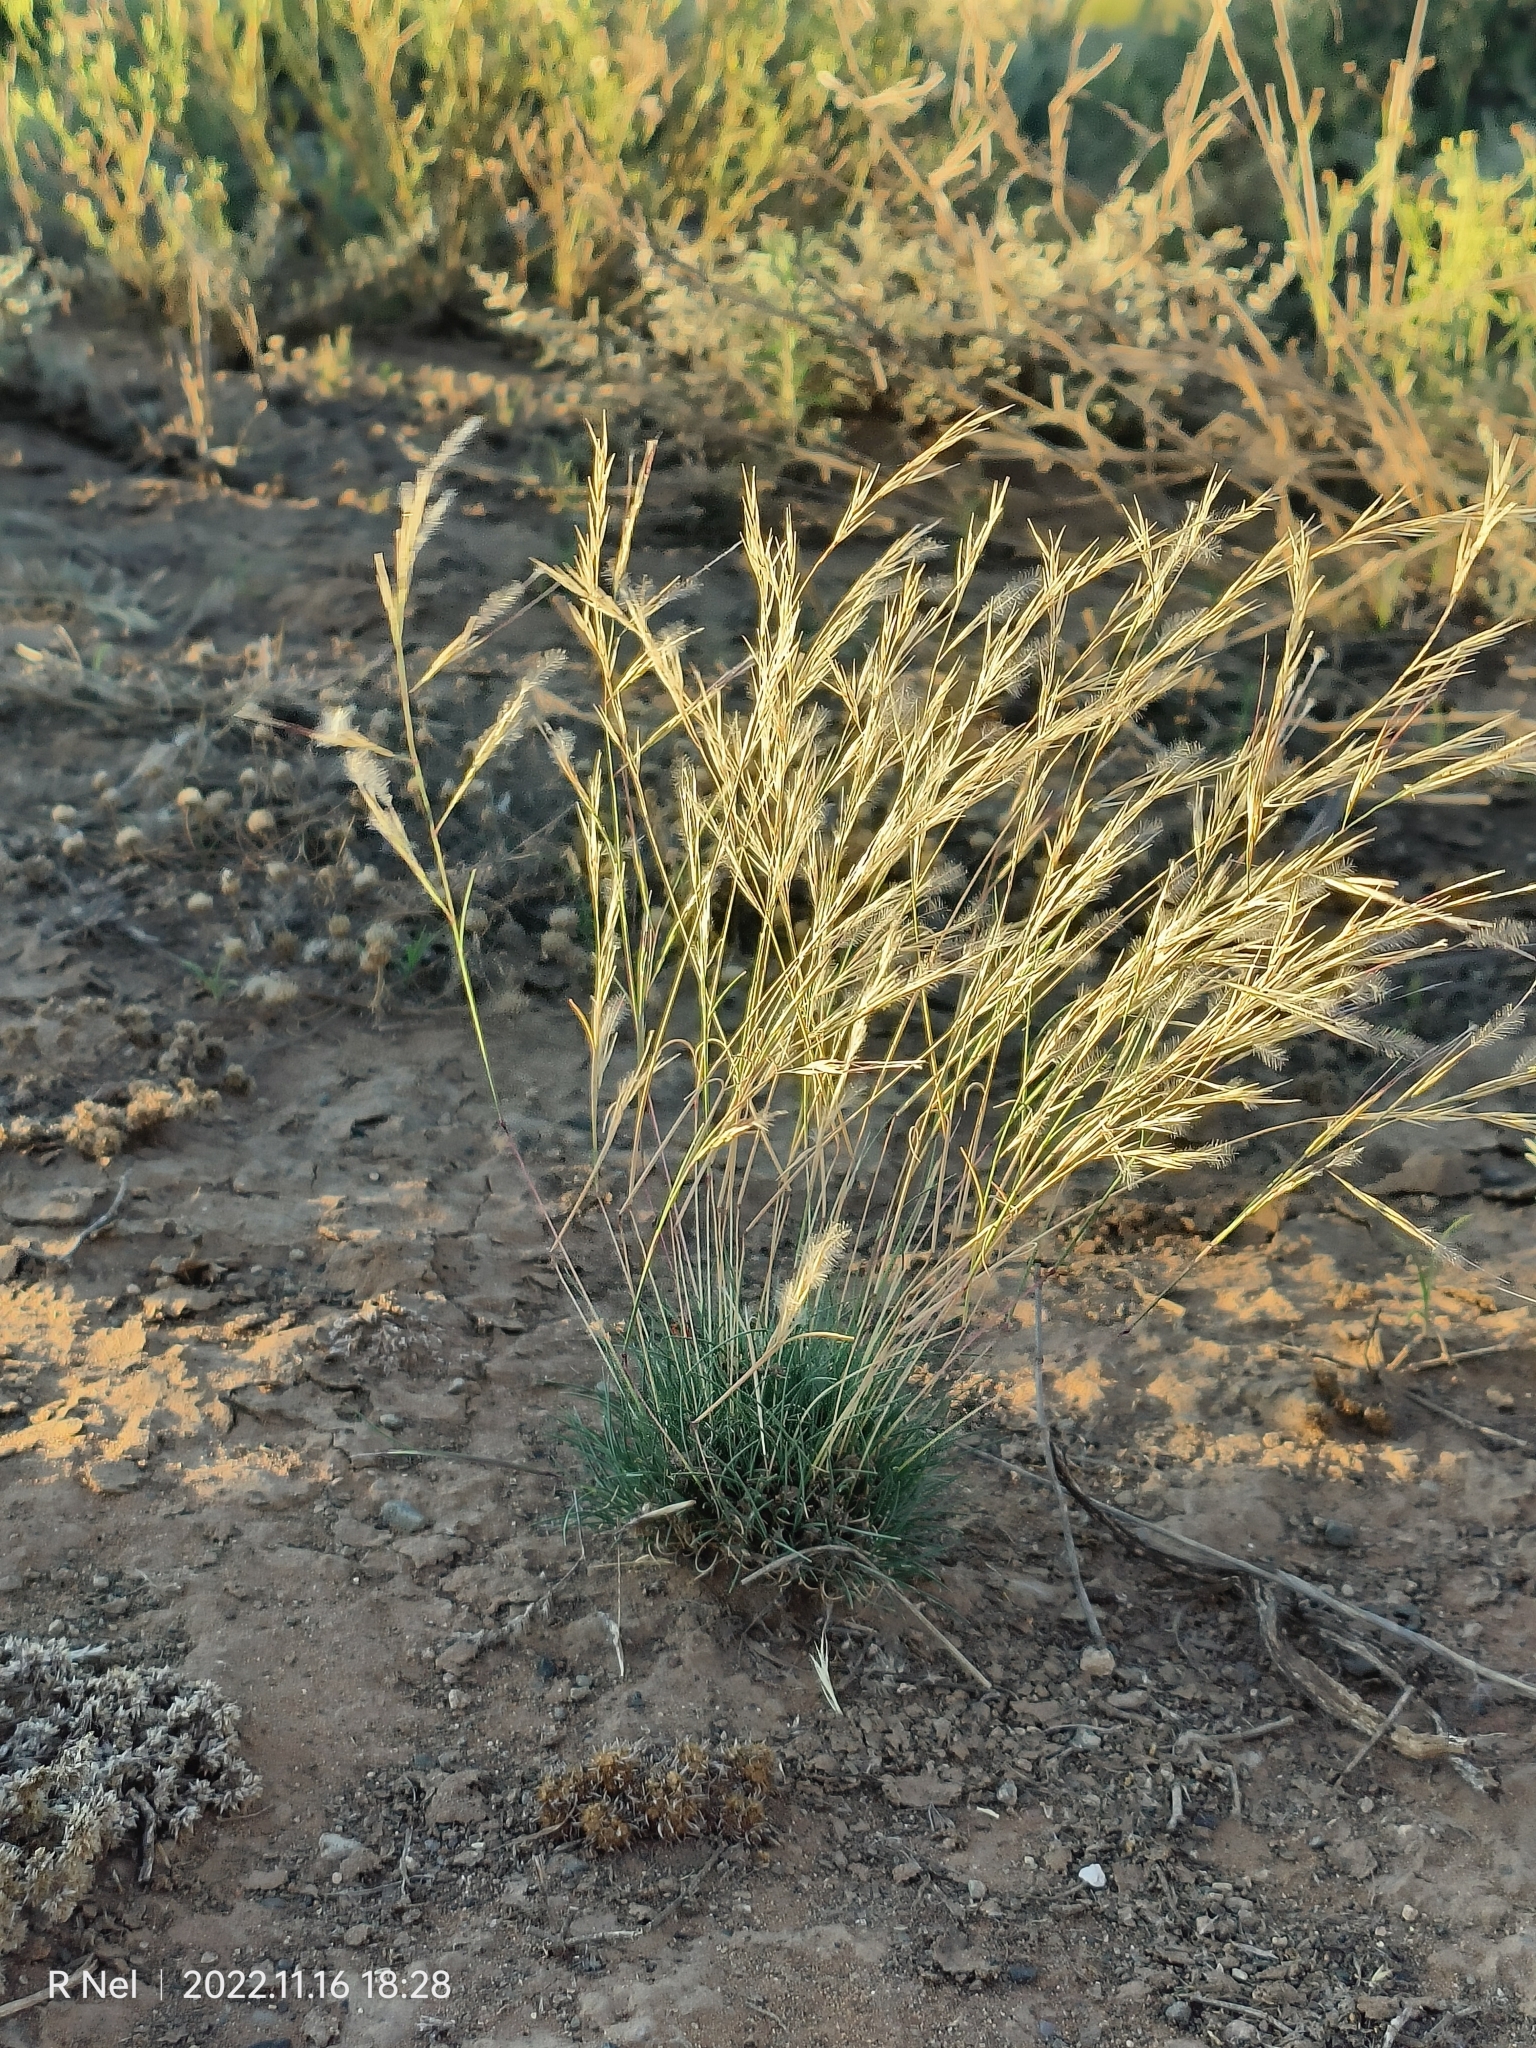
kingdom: Plantae
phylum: Tracheophyta
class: Liliopsida
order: Poales
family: Poaceae
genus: Stipagrostis
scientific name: Stipagrostis obtusa
